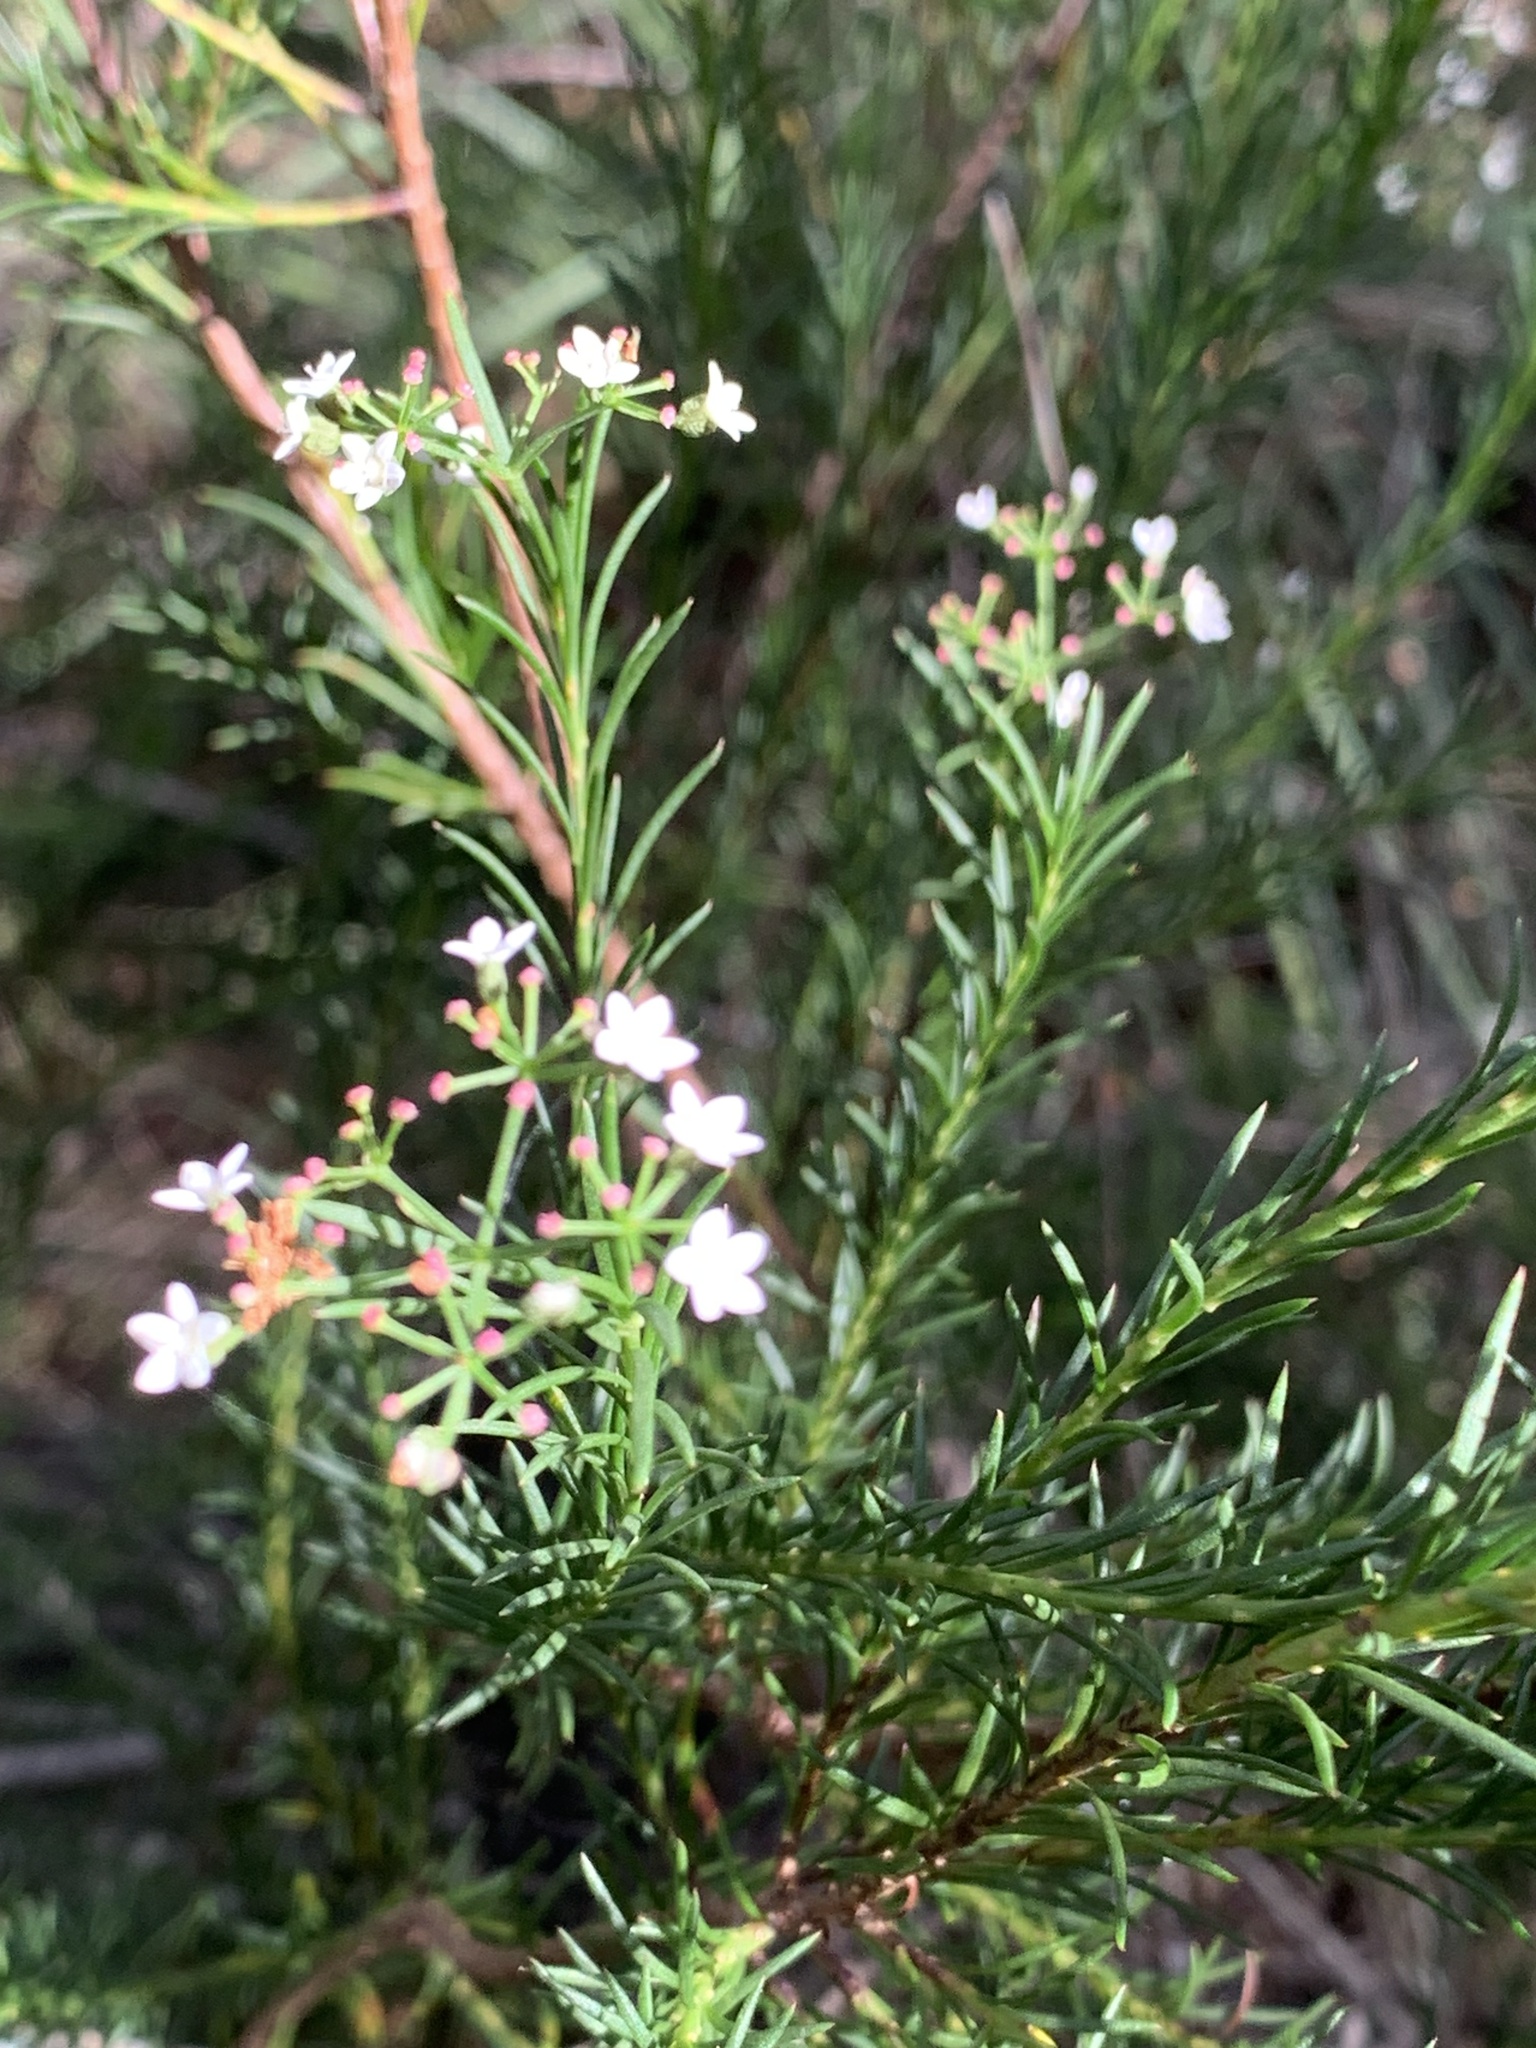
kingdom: Plantae
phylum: Tracheophyta
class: Magnoliopsida
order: Apiales
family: Apiaceae
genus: Platysace
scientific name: Platysace linearifolia
